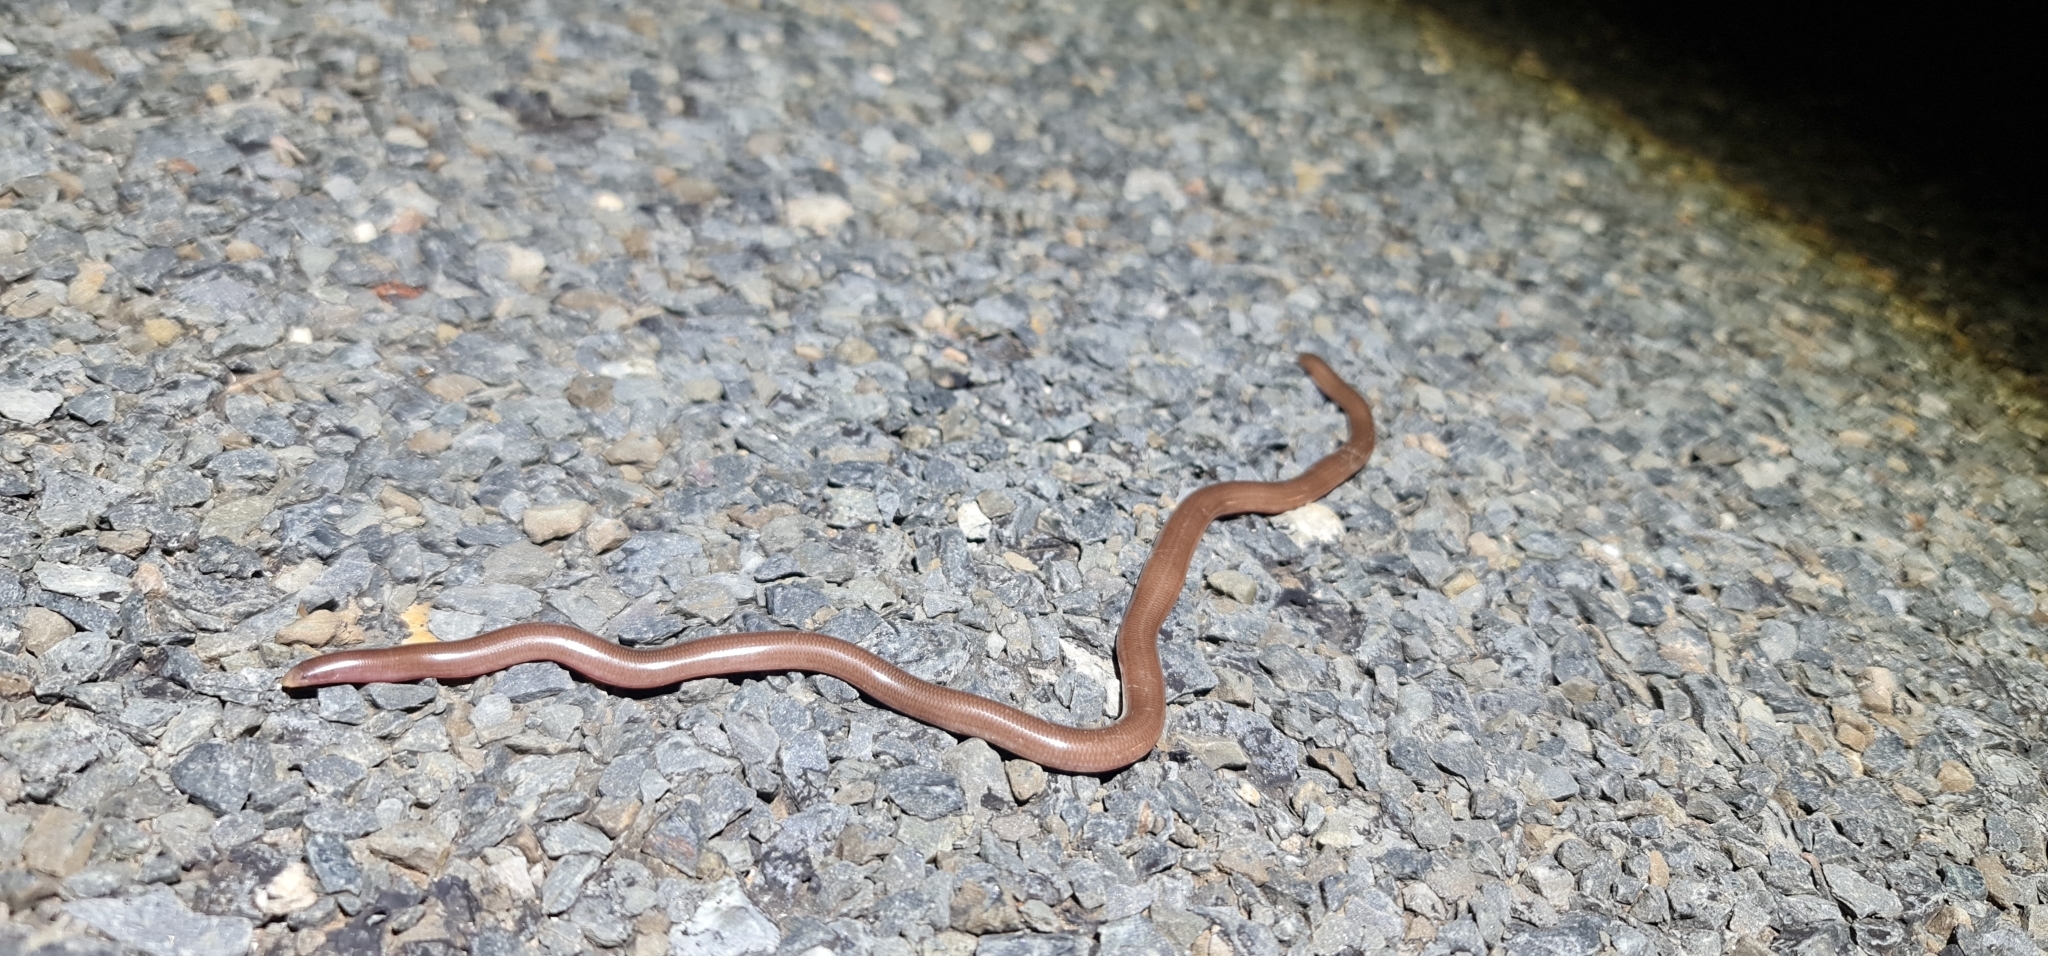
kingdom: Animalia
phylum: Chordata
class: Squamata
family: Typhlopidae
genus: Anilios
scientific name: Anilios bituberculatus
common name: Prong-snouted blind snake
